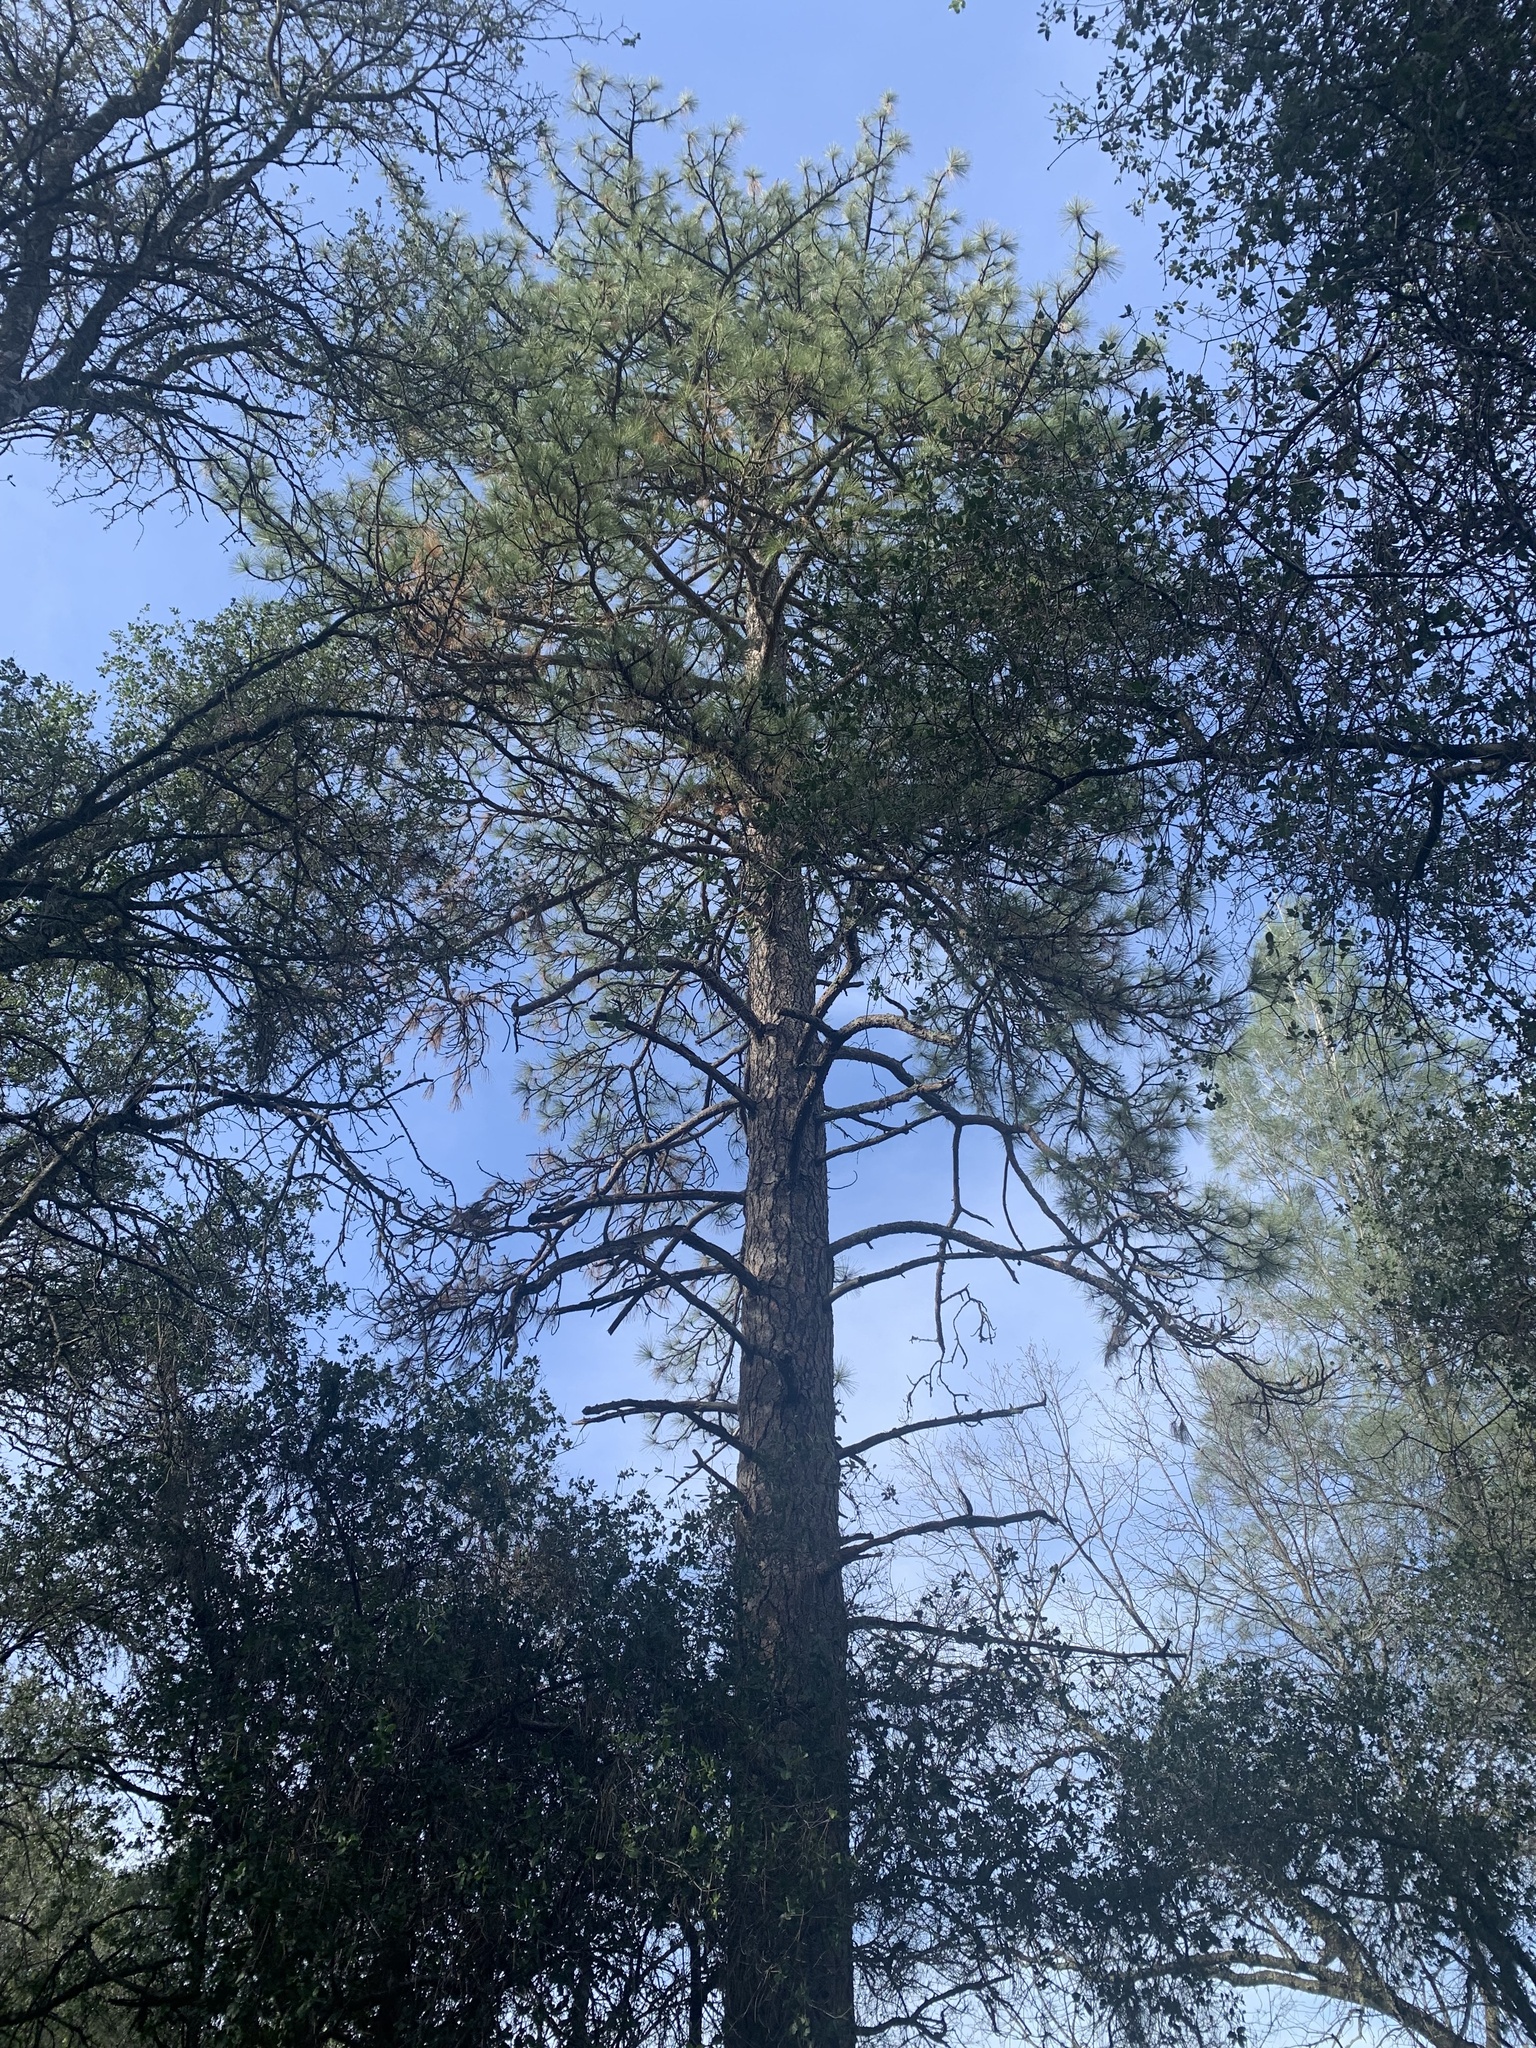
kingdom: Plantae
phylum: Tracheophyta
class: Pinopsida
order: Pinales
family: Pinaceae
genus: Pinus
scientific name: Pinus ponderosa
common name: Western yellow-pine
